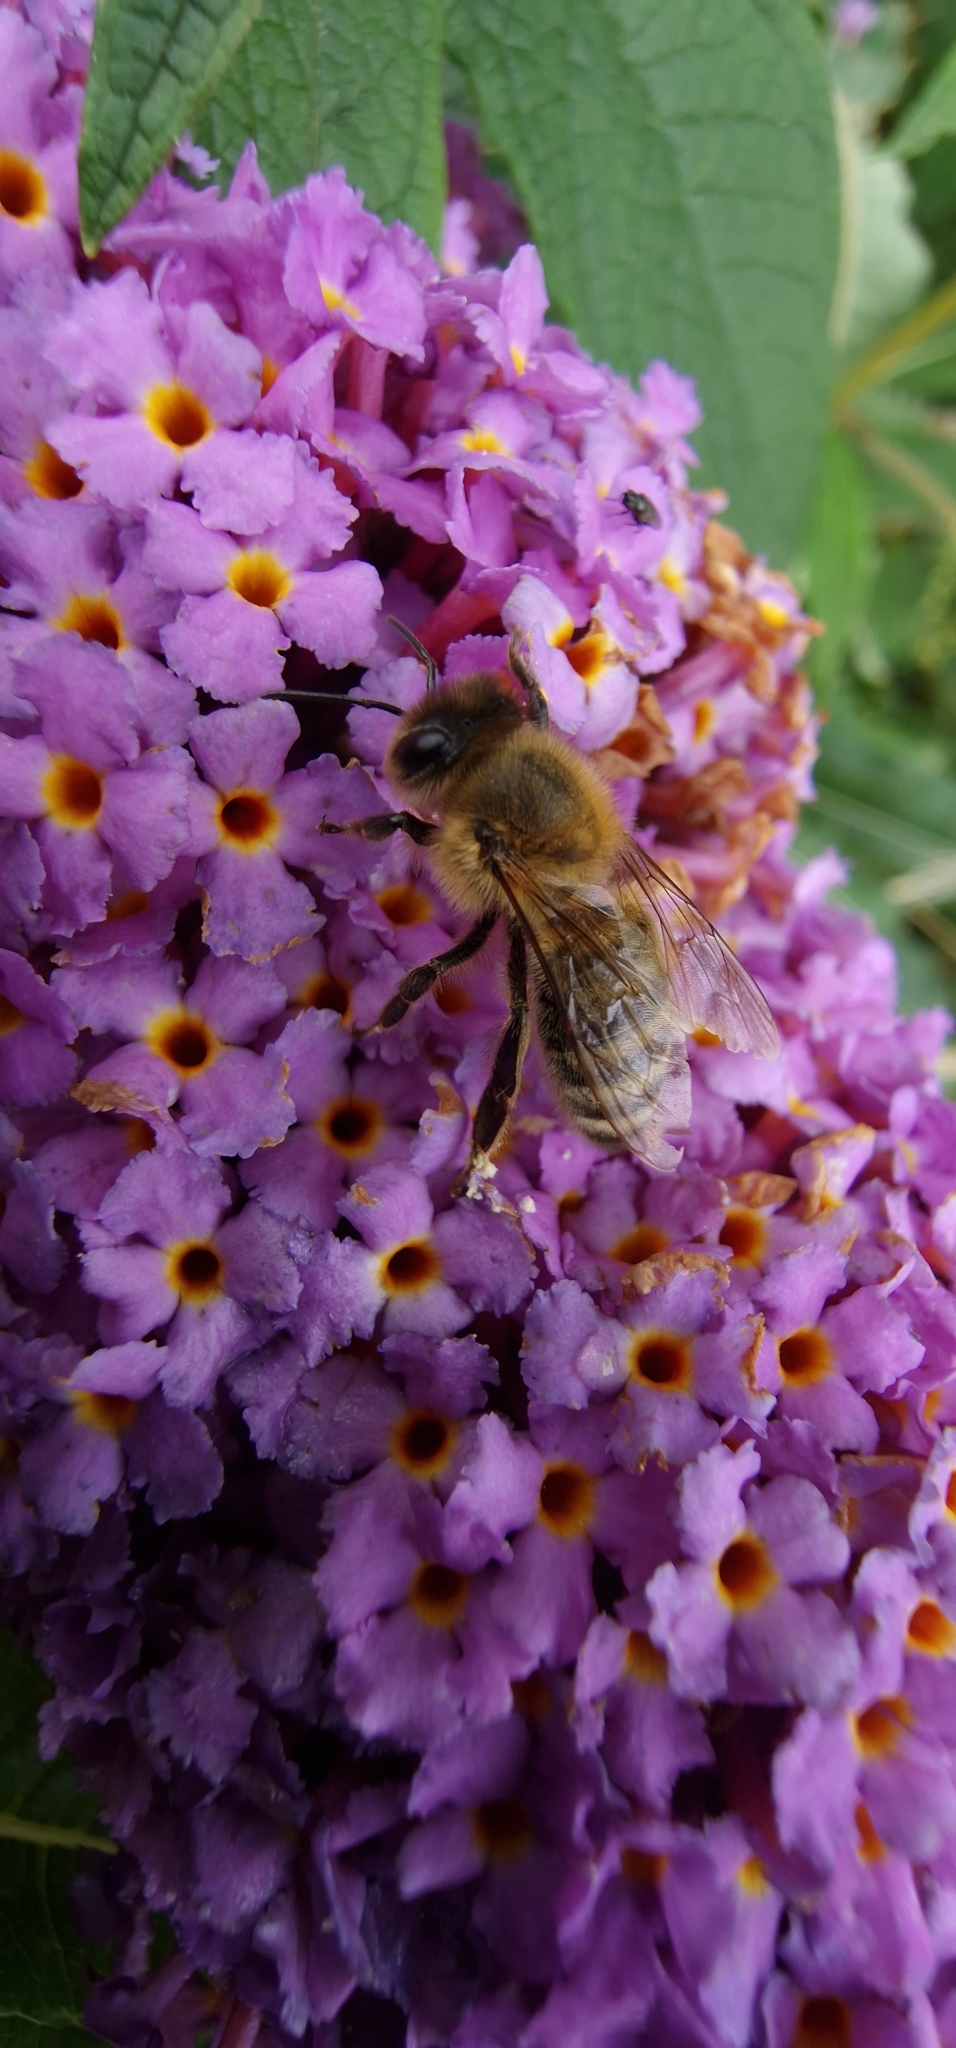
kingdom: Animalia
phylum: Arthropoda
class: Insecta
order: Hymenoptera
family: Apidae
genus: Apis
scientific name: Apis mellifera
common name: Honey bee
